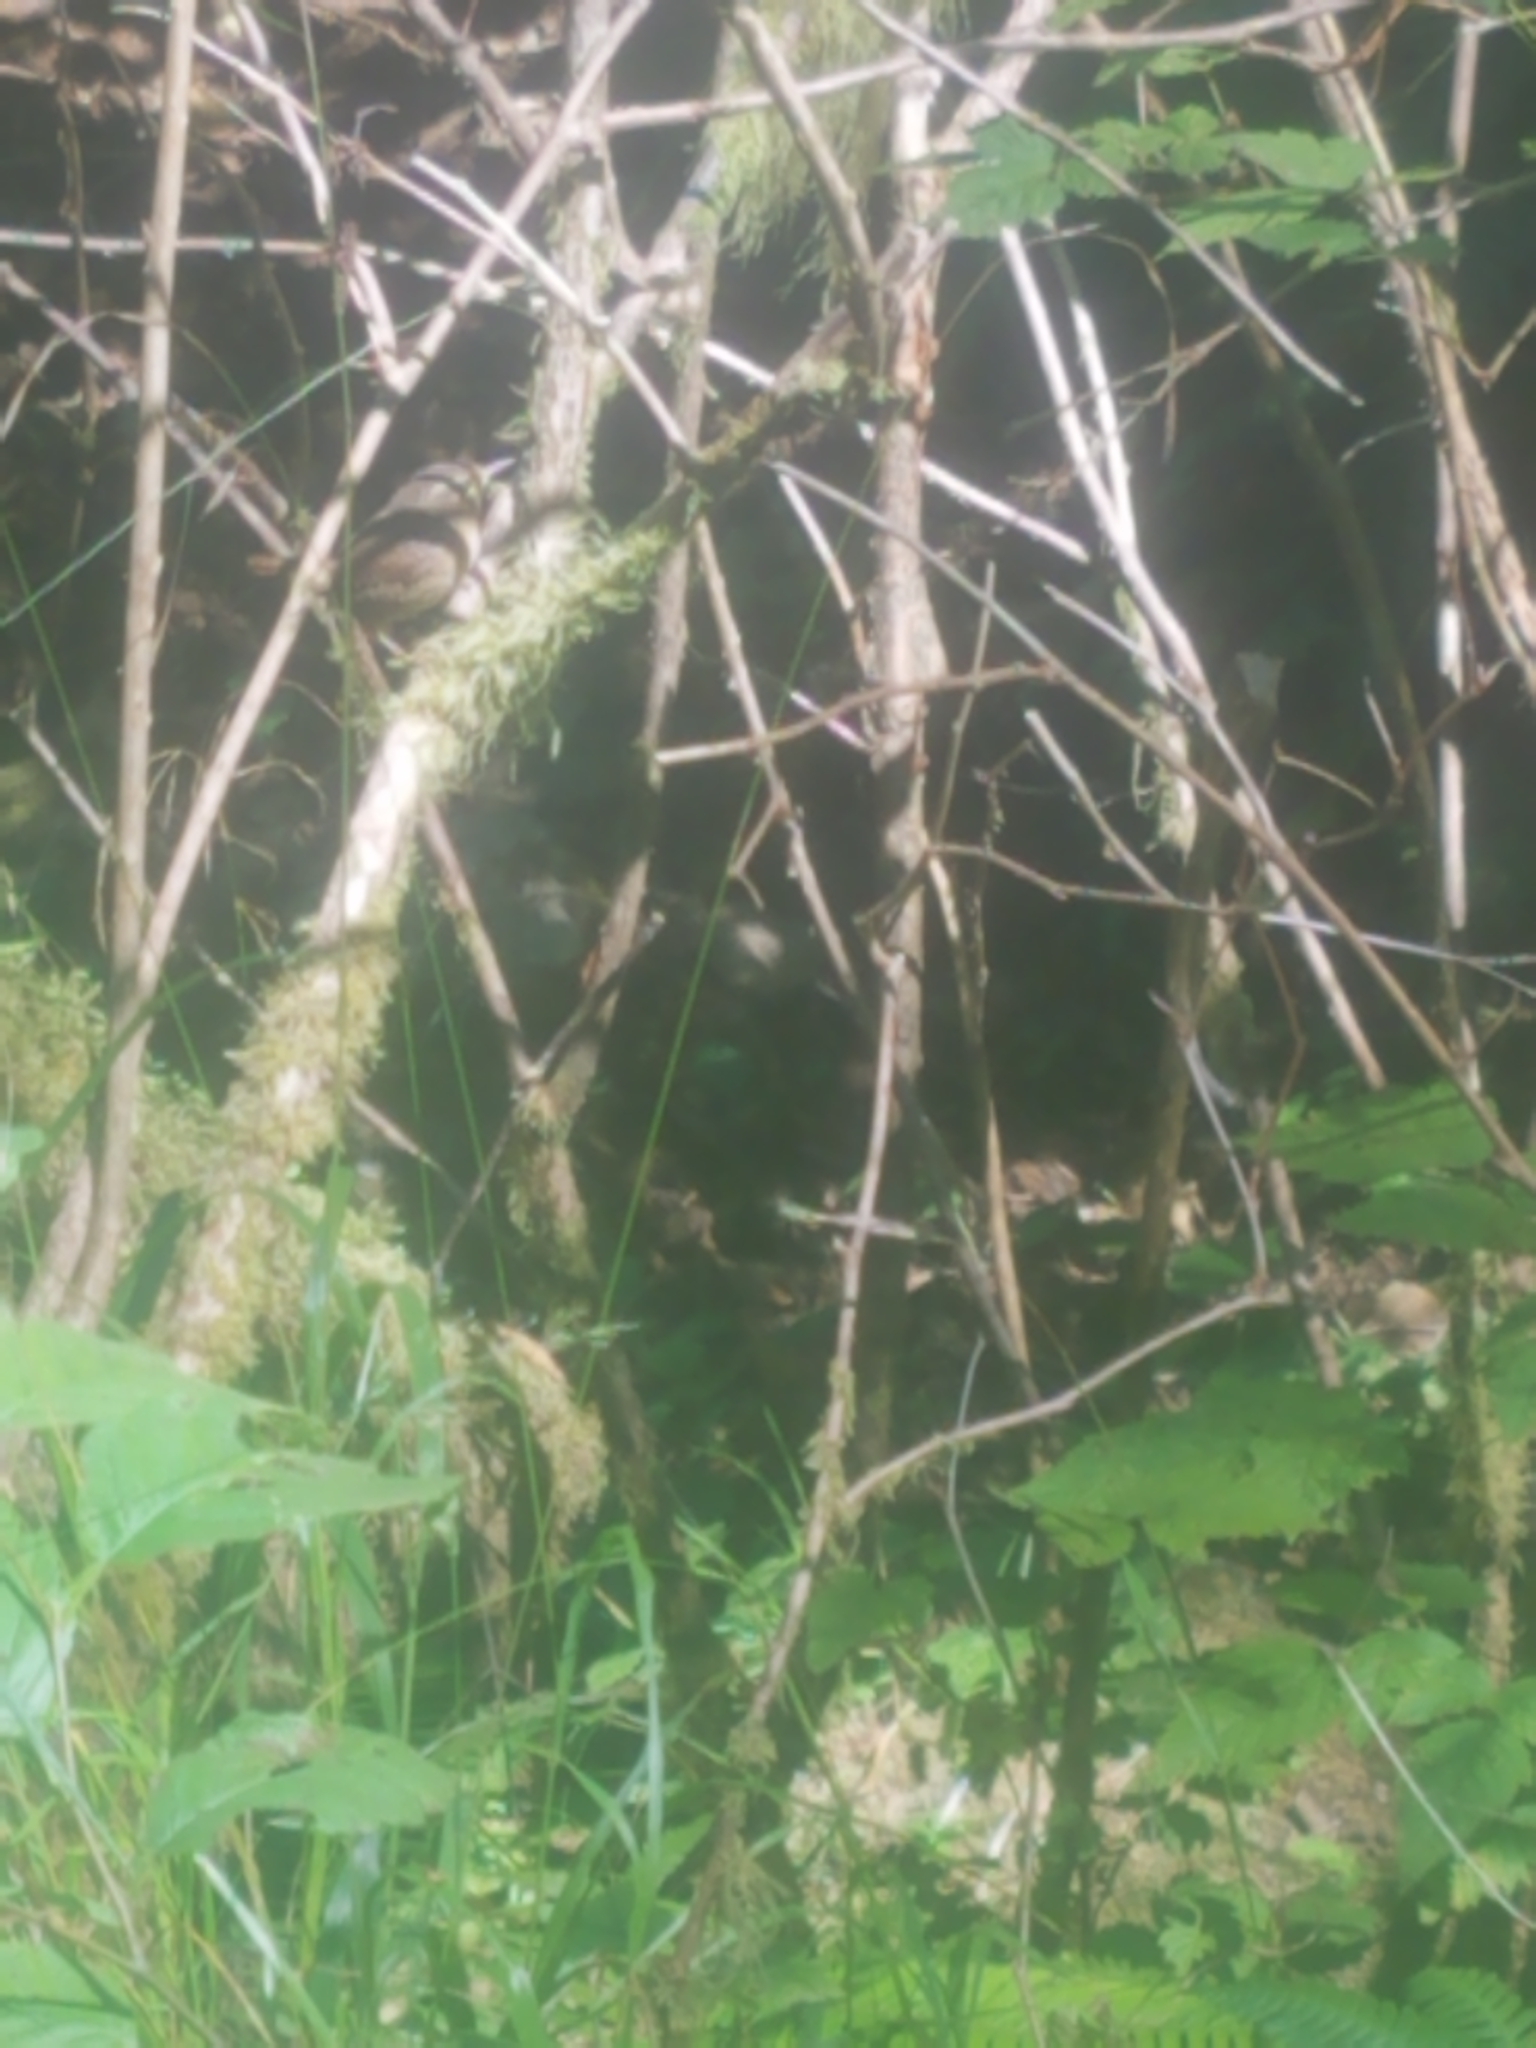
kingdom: Animalia
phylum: Chordata
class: Aves
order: Passeriformes
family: Troglodytidae
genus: Troglodytes
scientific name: Troglodytes pacificus
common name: Pacific wren
